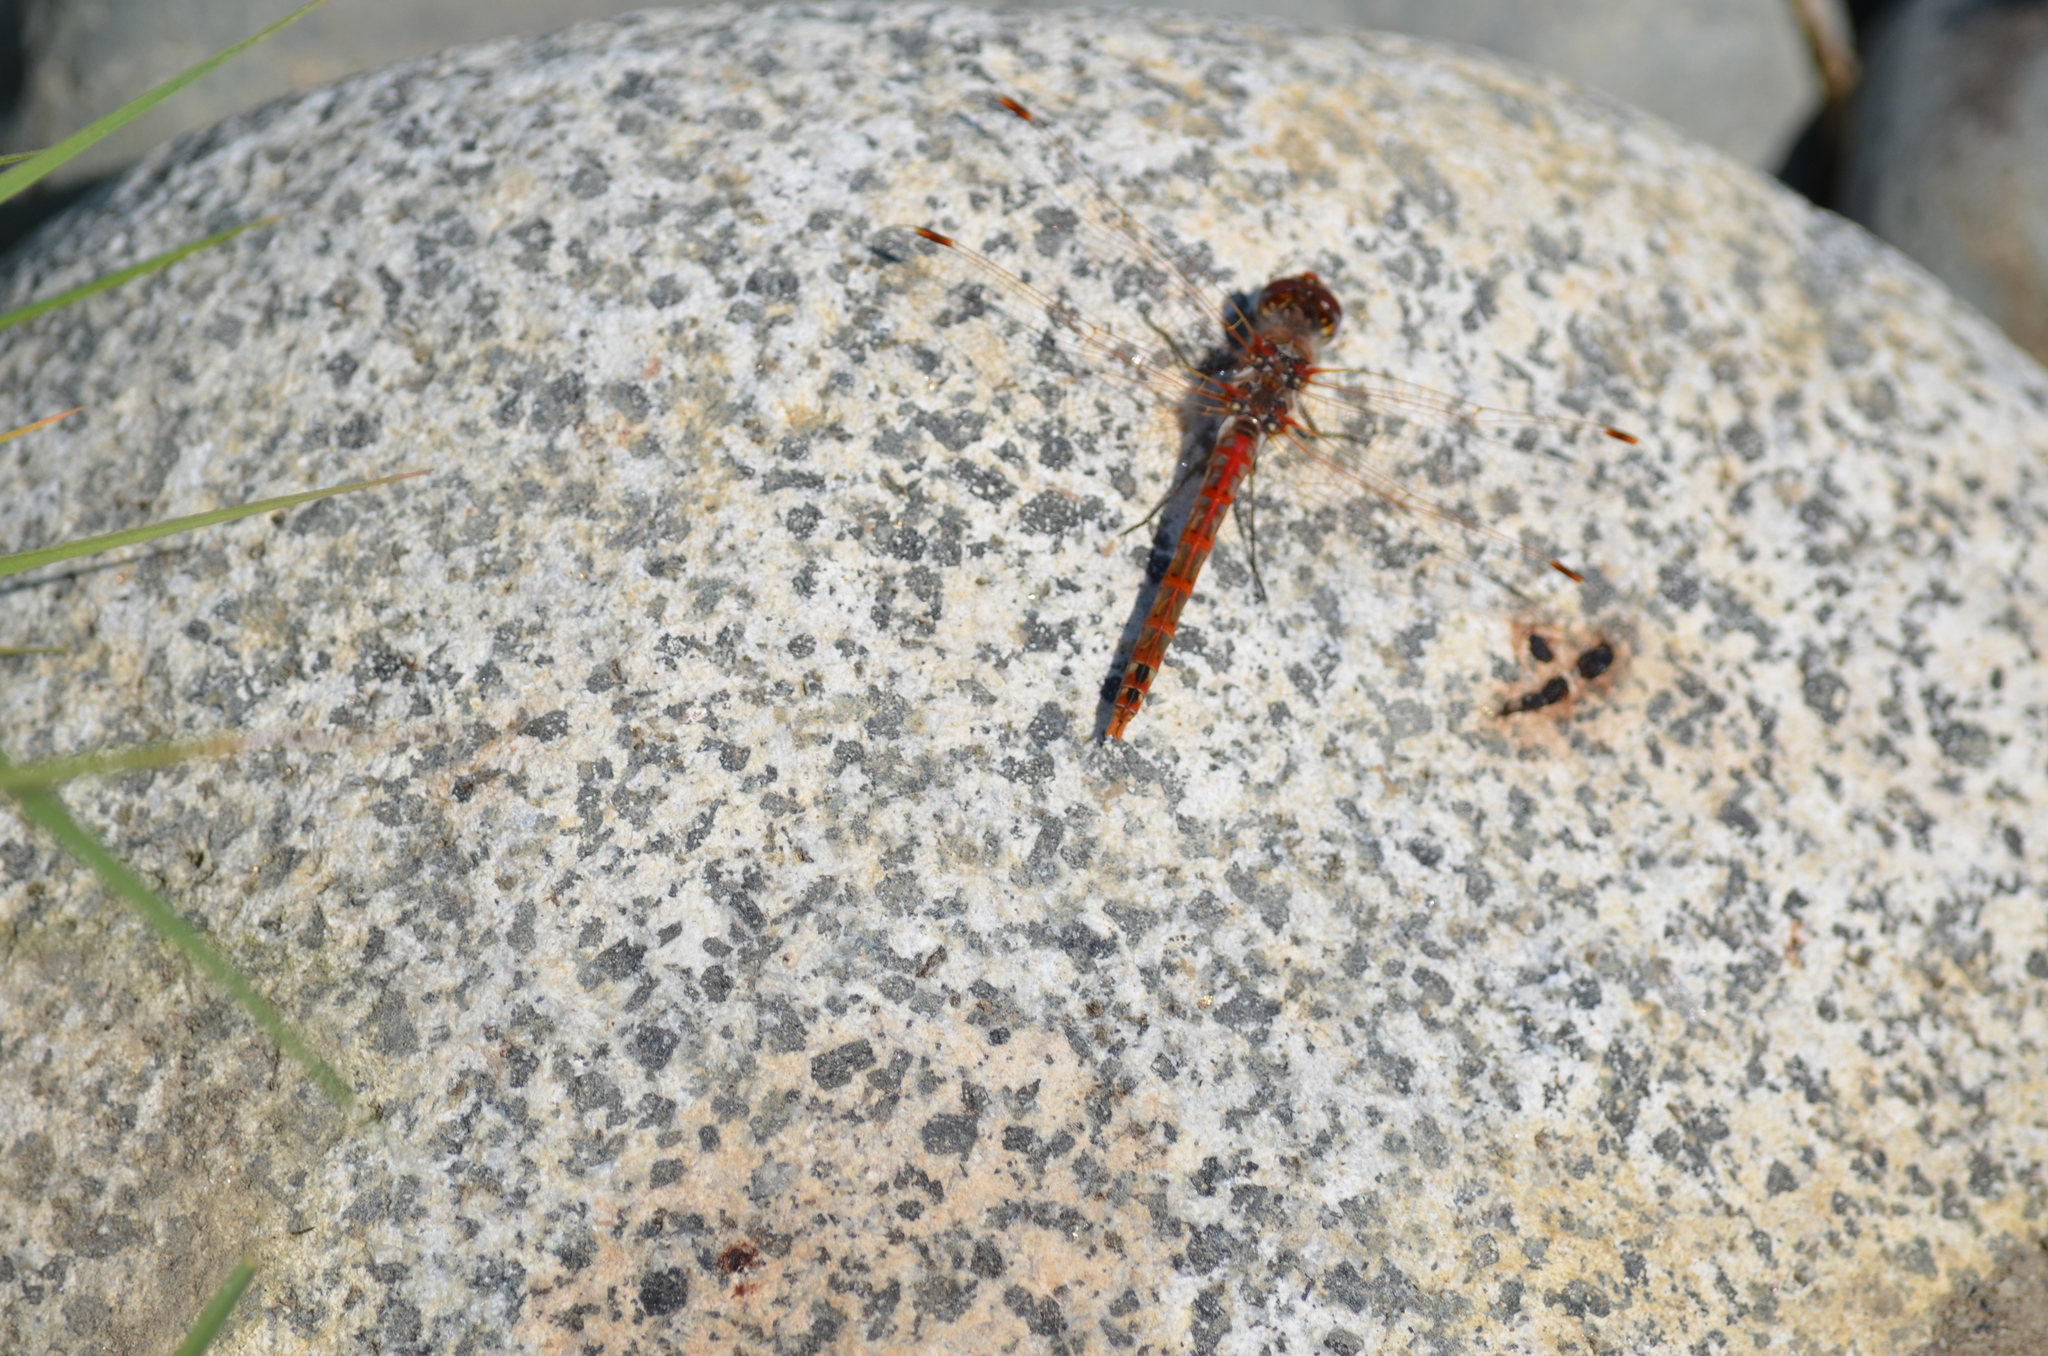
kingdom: Animalia
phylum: Arthropoda
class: Insecta
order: Odonata
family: Libellulidae
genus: Sympetrum
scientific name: Sympetrum corruptum
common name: Variegated meadowhawk
